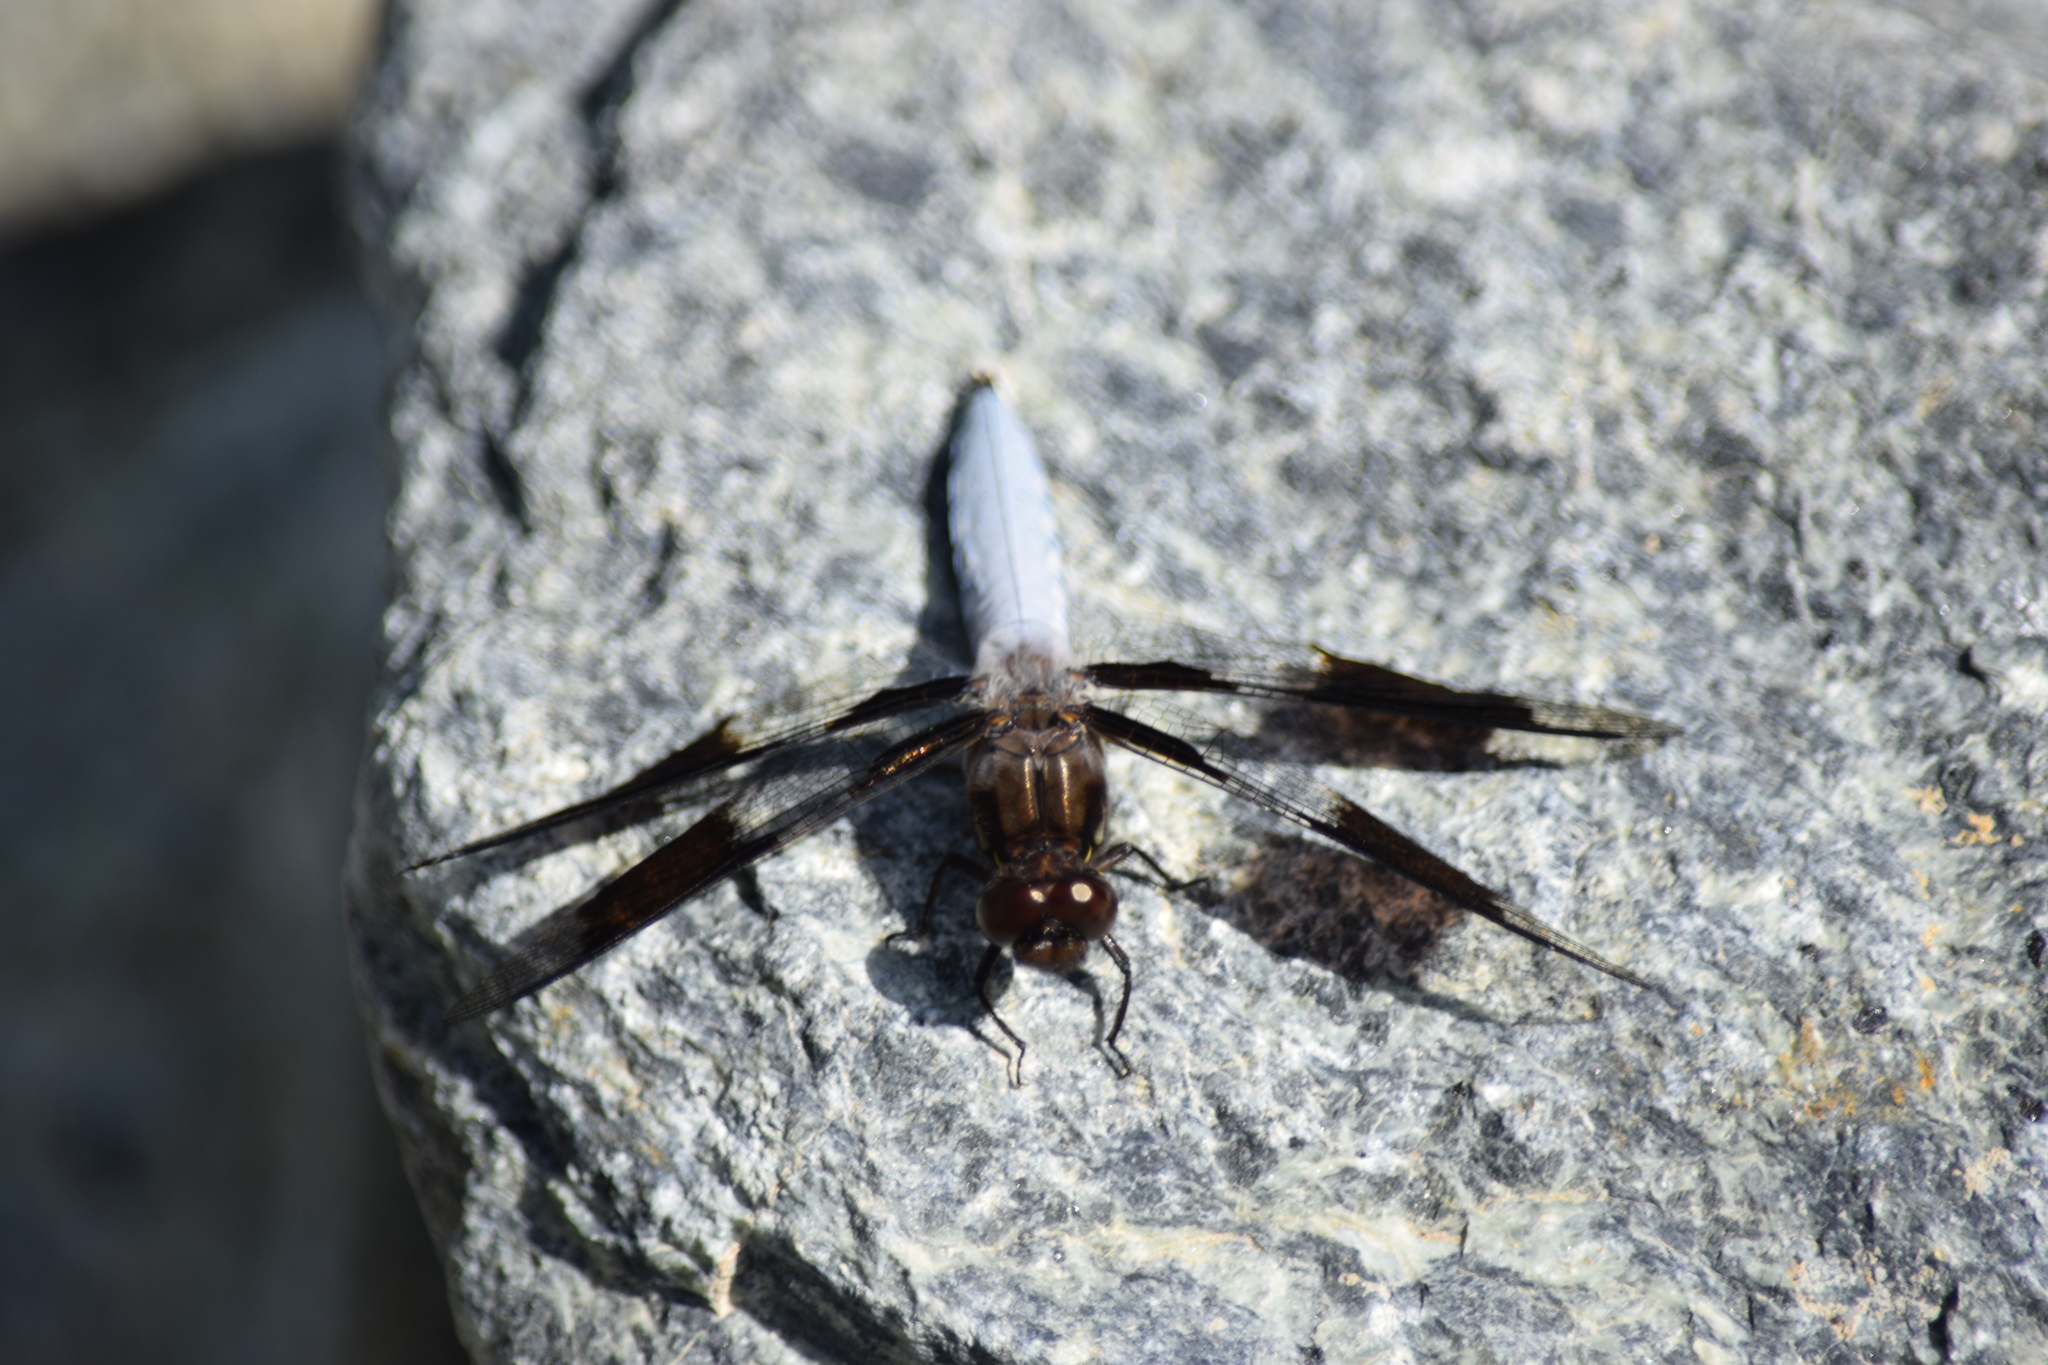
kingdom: Animalia
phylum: Arthropoda
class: Insecta
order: Odonata
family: Libellulidae
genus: Plathemis
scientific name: Plathemis lydia
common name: Common whitetail
